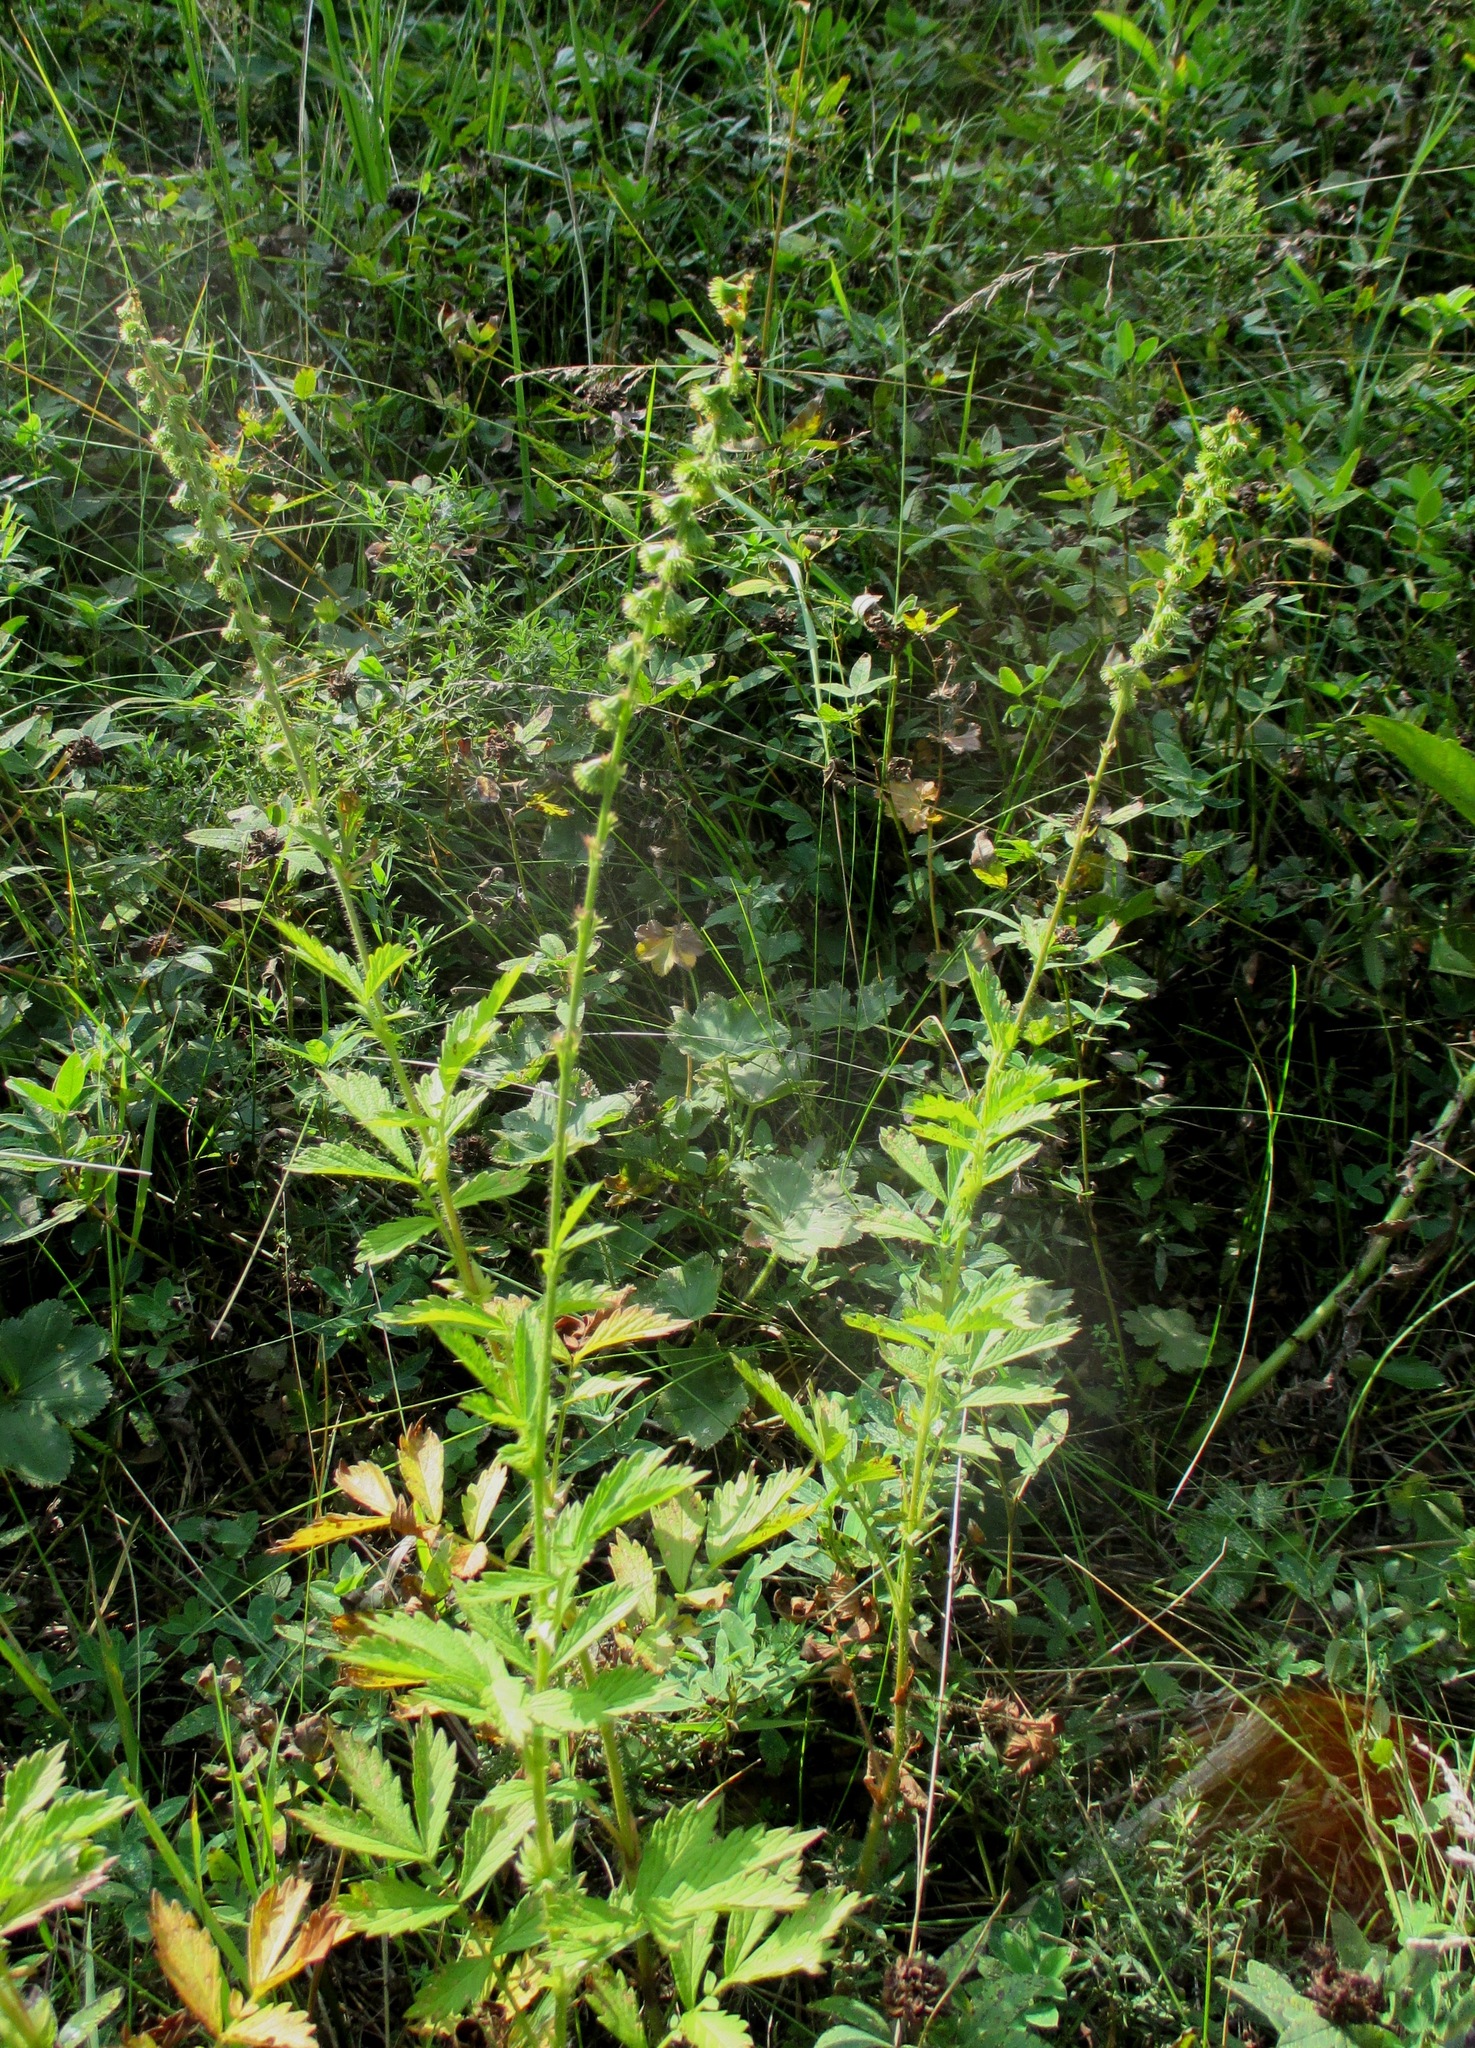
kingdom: Plantae
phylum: Tracheophyta
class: Magnoliopsida
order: Rosales
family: Rosaceae
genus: Agrimonia
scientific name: Agrimonia pilosa
